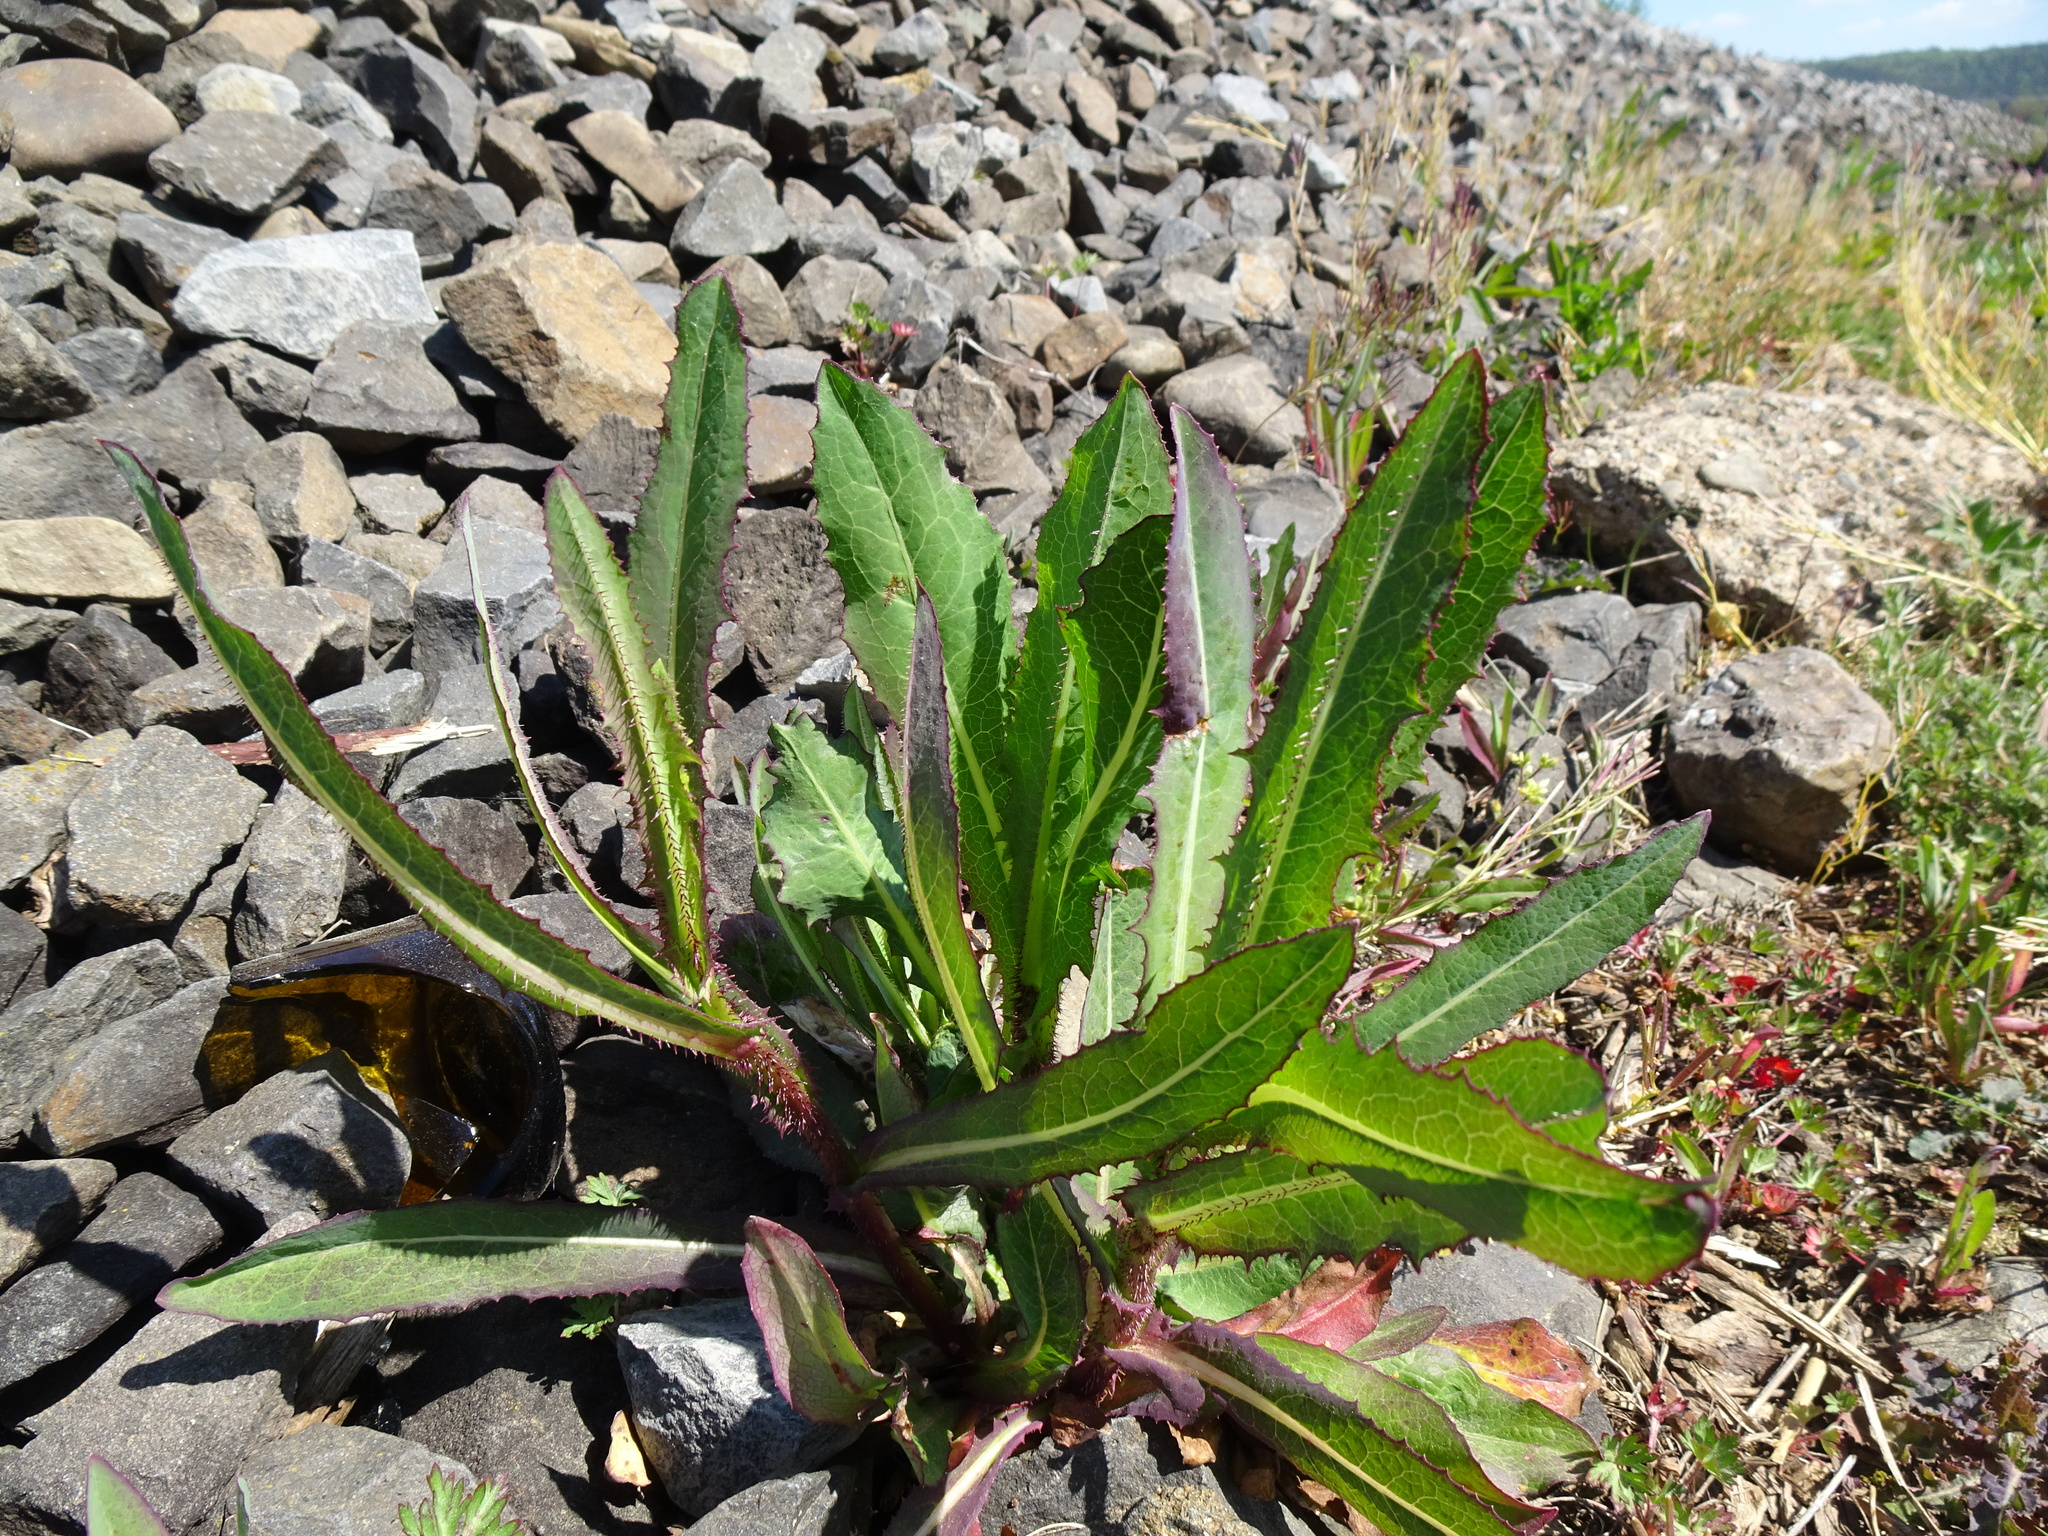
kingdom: Plantae
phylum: Tracheophyta
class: Magnoliopsida
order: Asterales
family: Asteraceae
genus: Lactuca
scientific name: Lactuca serriola
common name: Prickly lettuce
